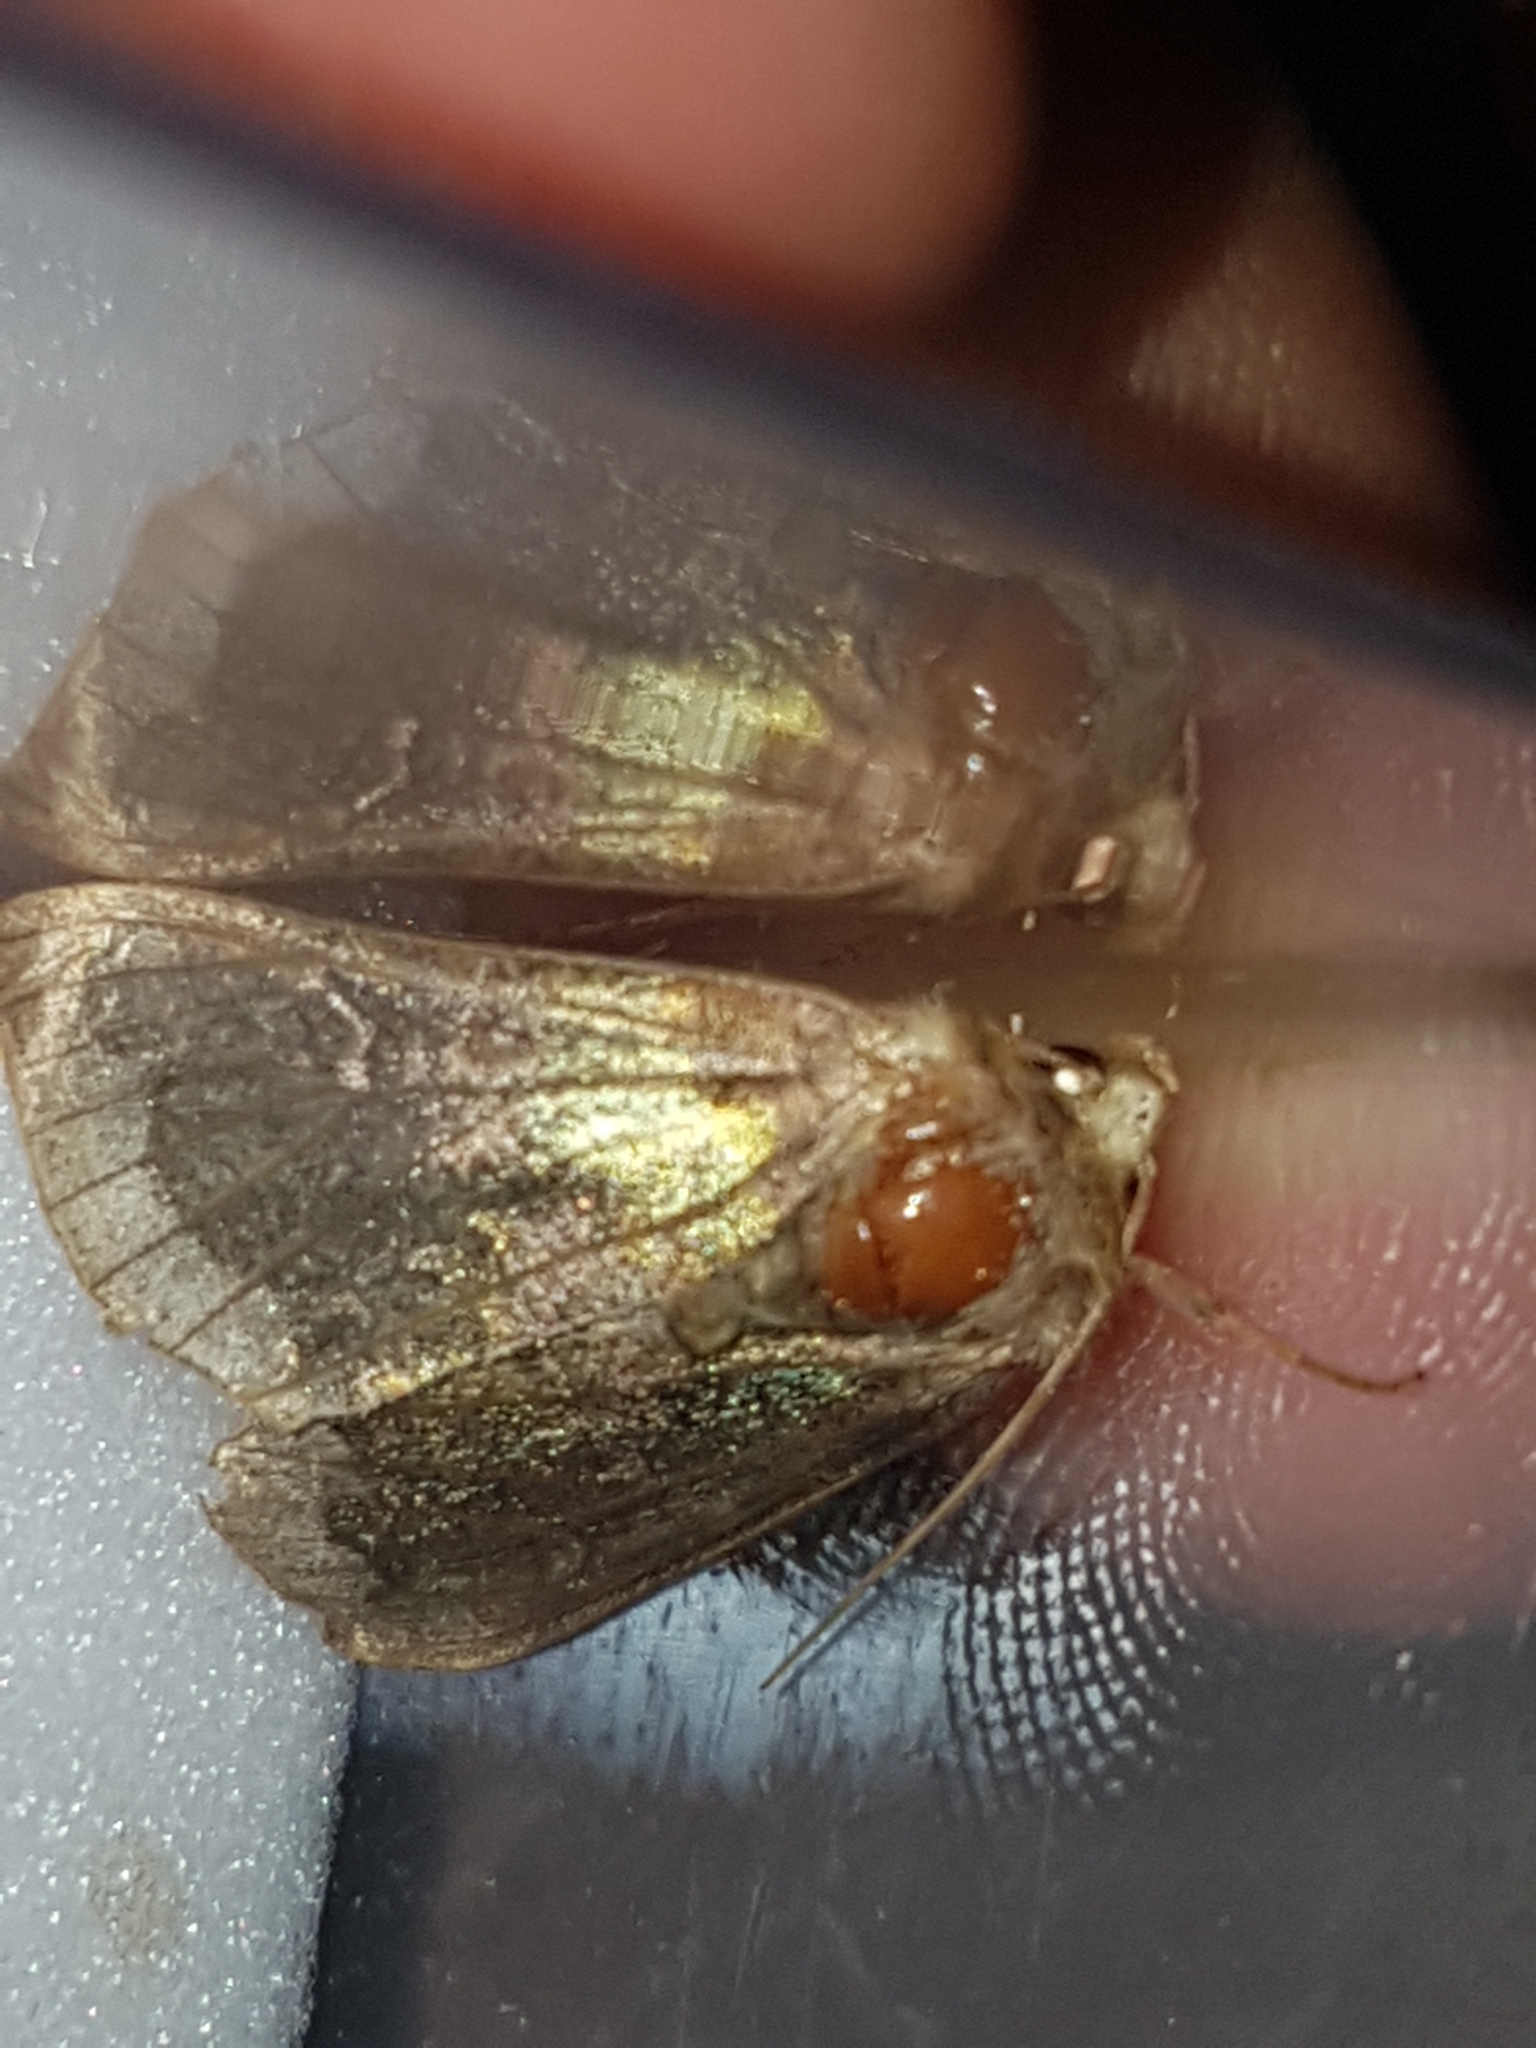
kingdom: Animalia
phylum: Arthropoda
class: Insecta
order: Lepidoptera
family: Noctuidae
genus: Diachrysia
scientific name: Diachrysia chrysitis
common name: Burnished brass
